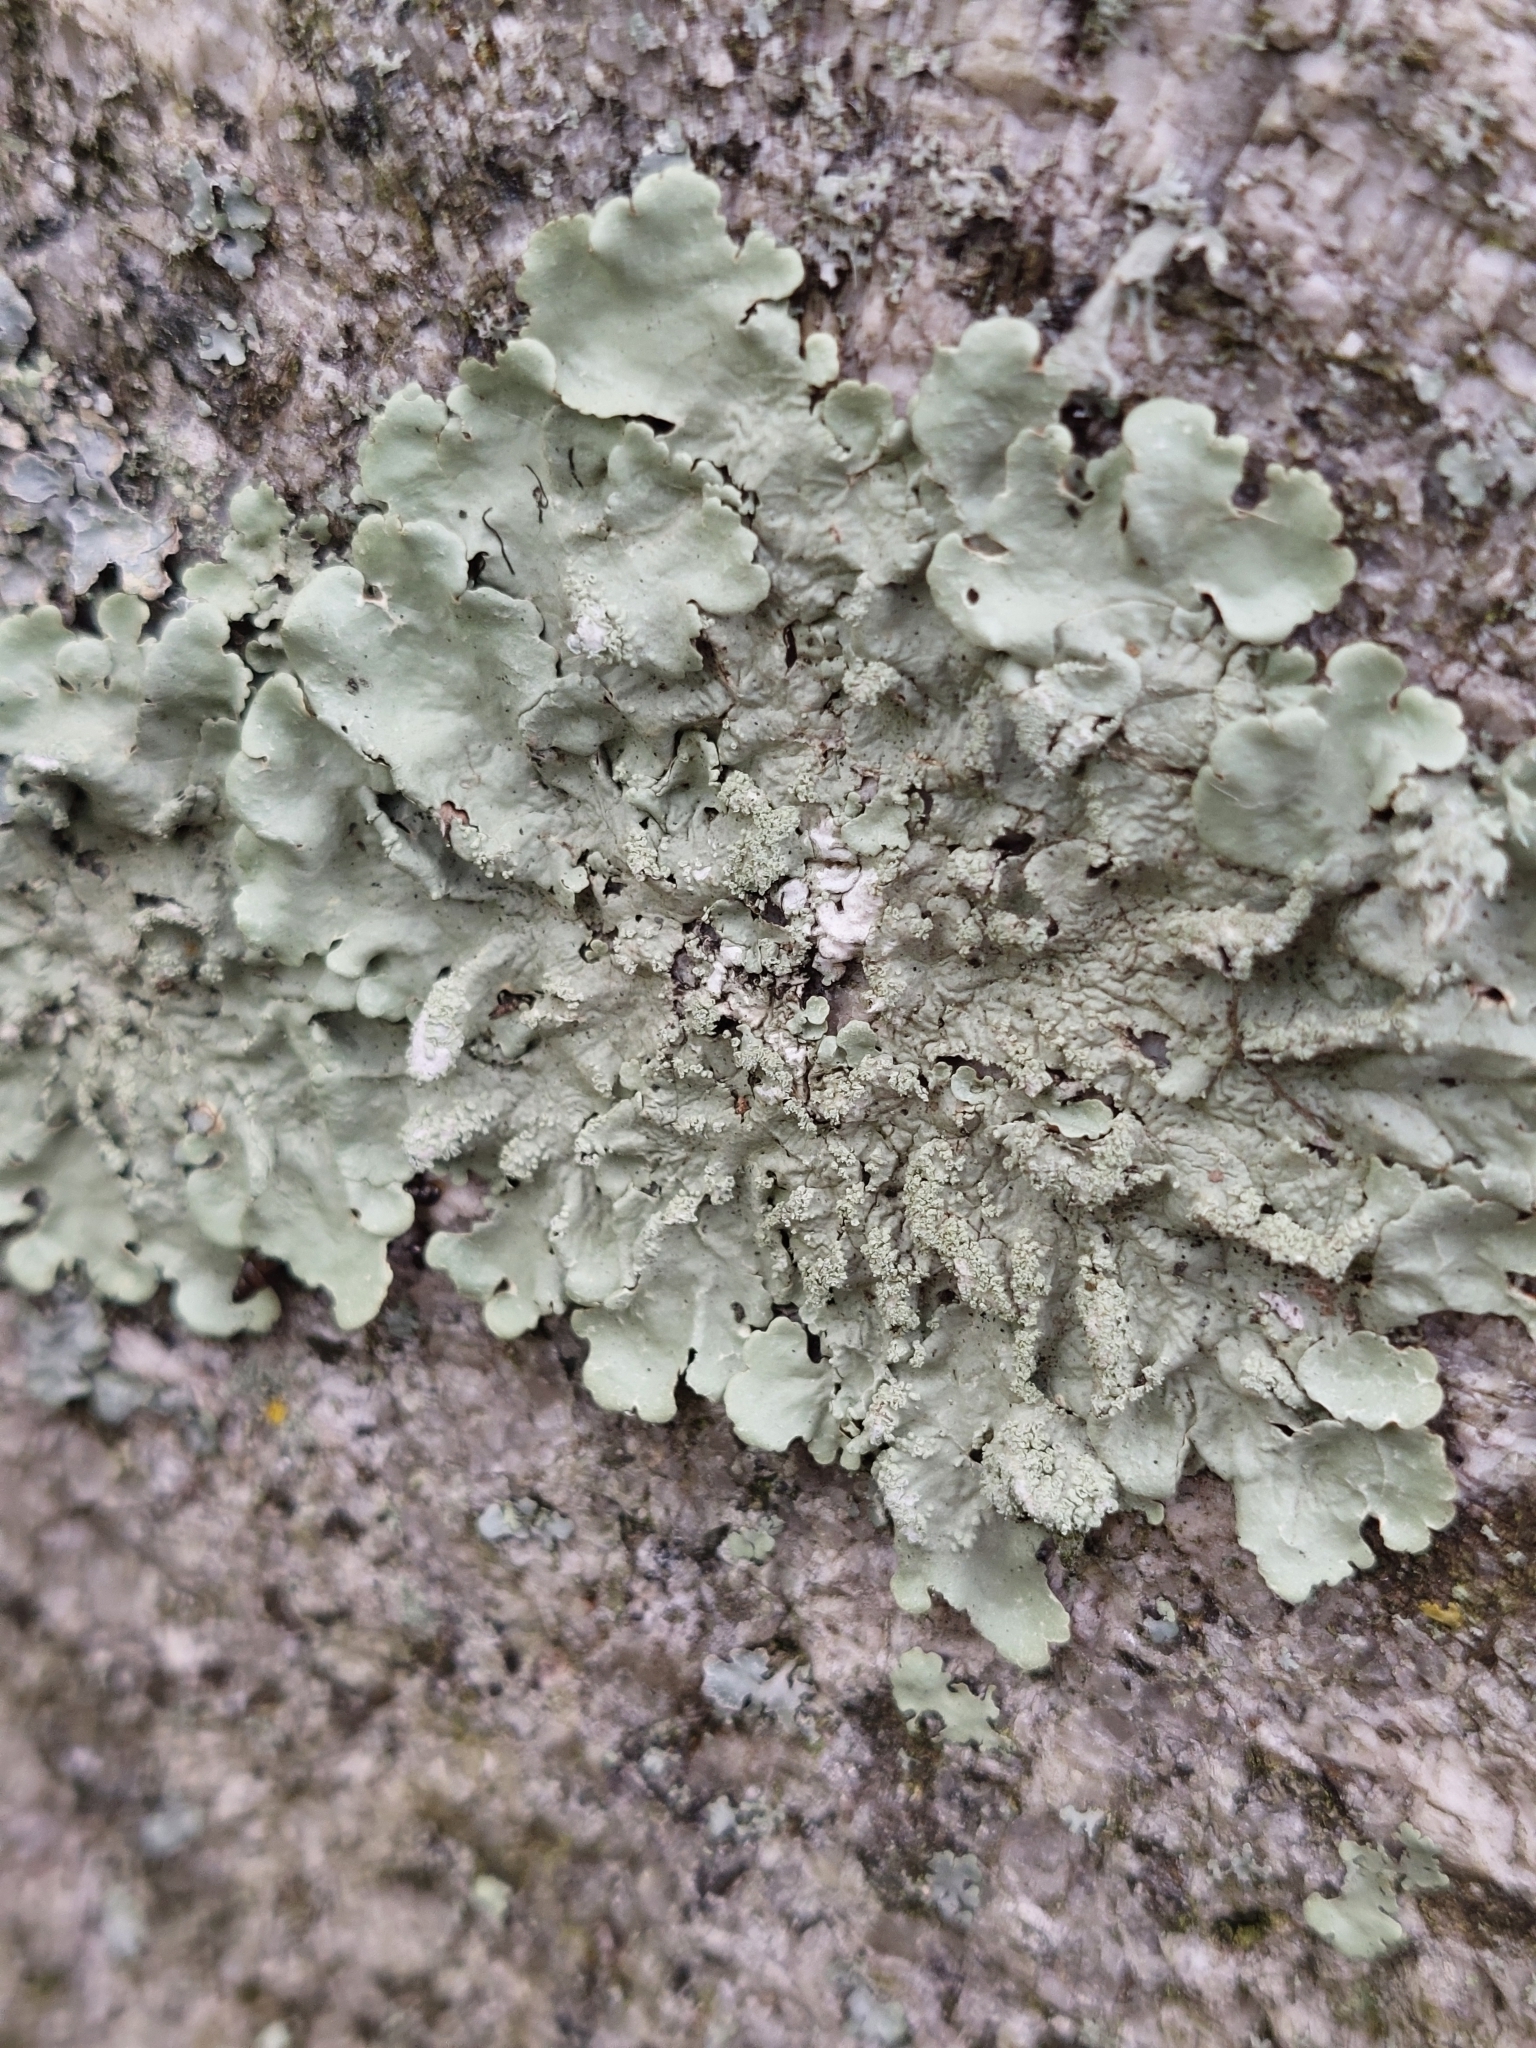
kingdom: Fungi
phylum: Ascomycota
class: Lecanoromycetes
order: Lecanorales
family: Parmeliaceae
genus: Flavoparmelia
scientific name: Flavoparmelia caperata
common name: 40-mile per hour lichen
